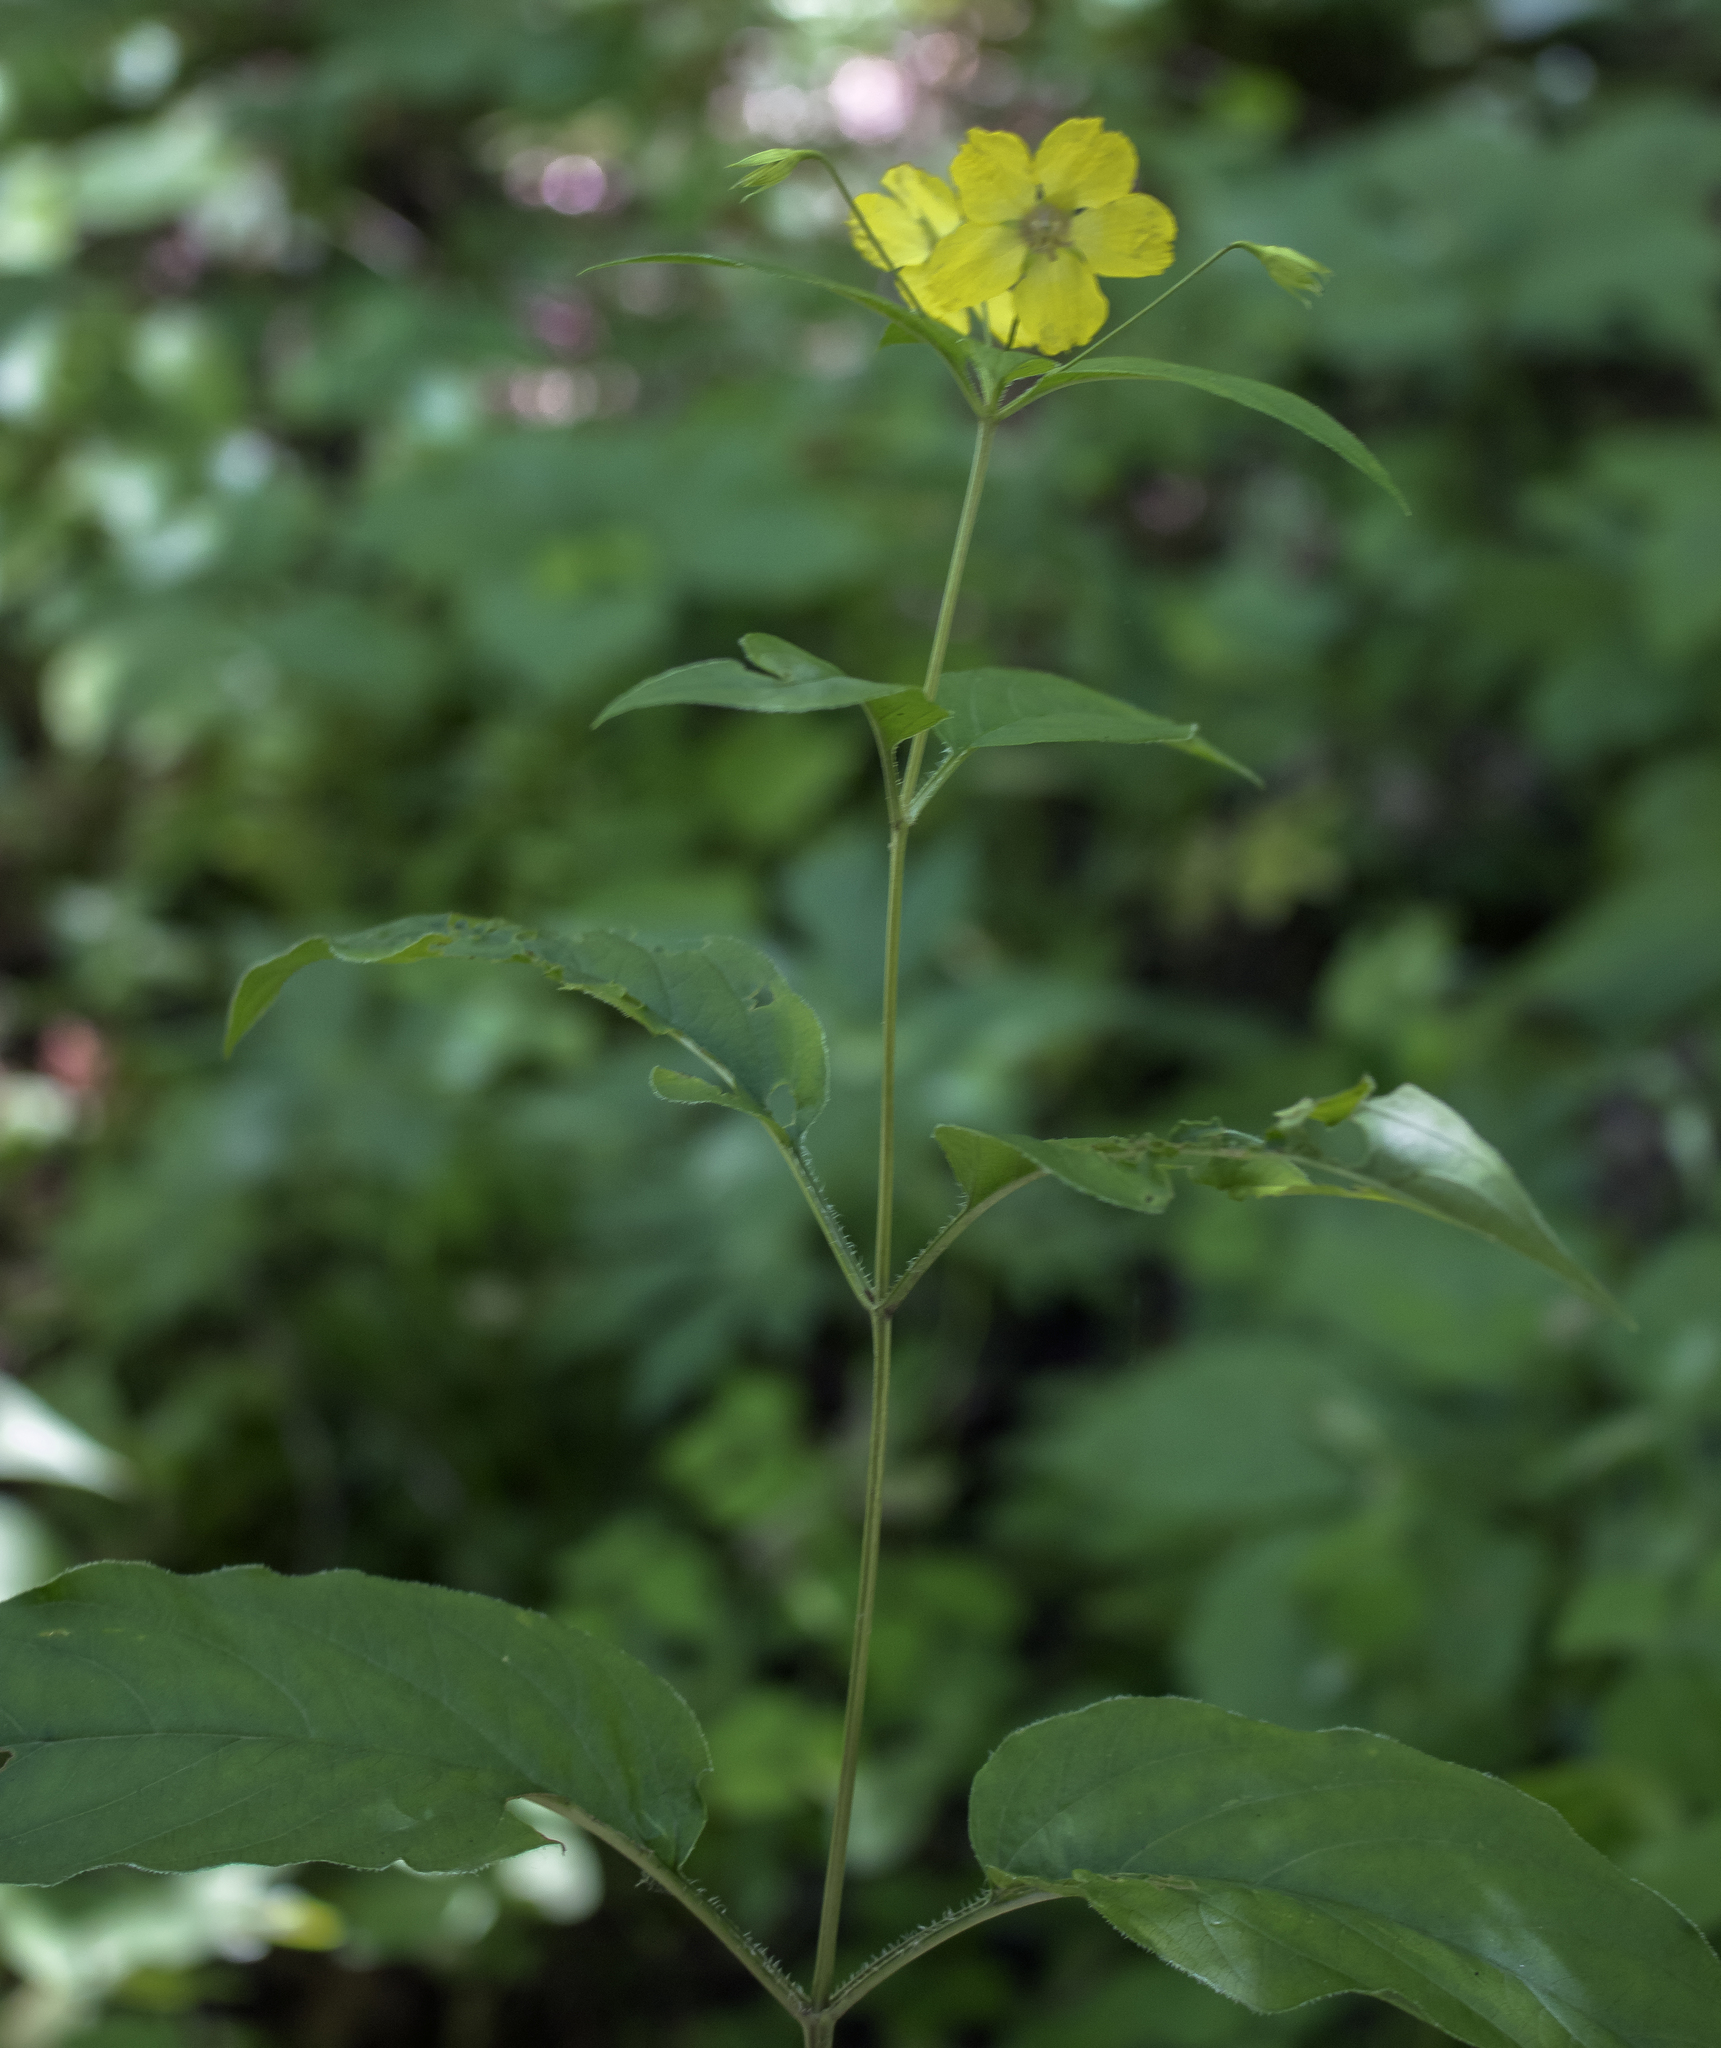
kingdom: Plantae
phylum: Tracheophyta
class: Magnoliopsida
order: Ericales
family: Primulaceae
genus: Lysimachia
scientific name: Lysimachia ciliata
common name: Fringed loosestrife
